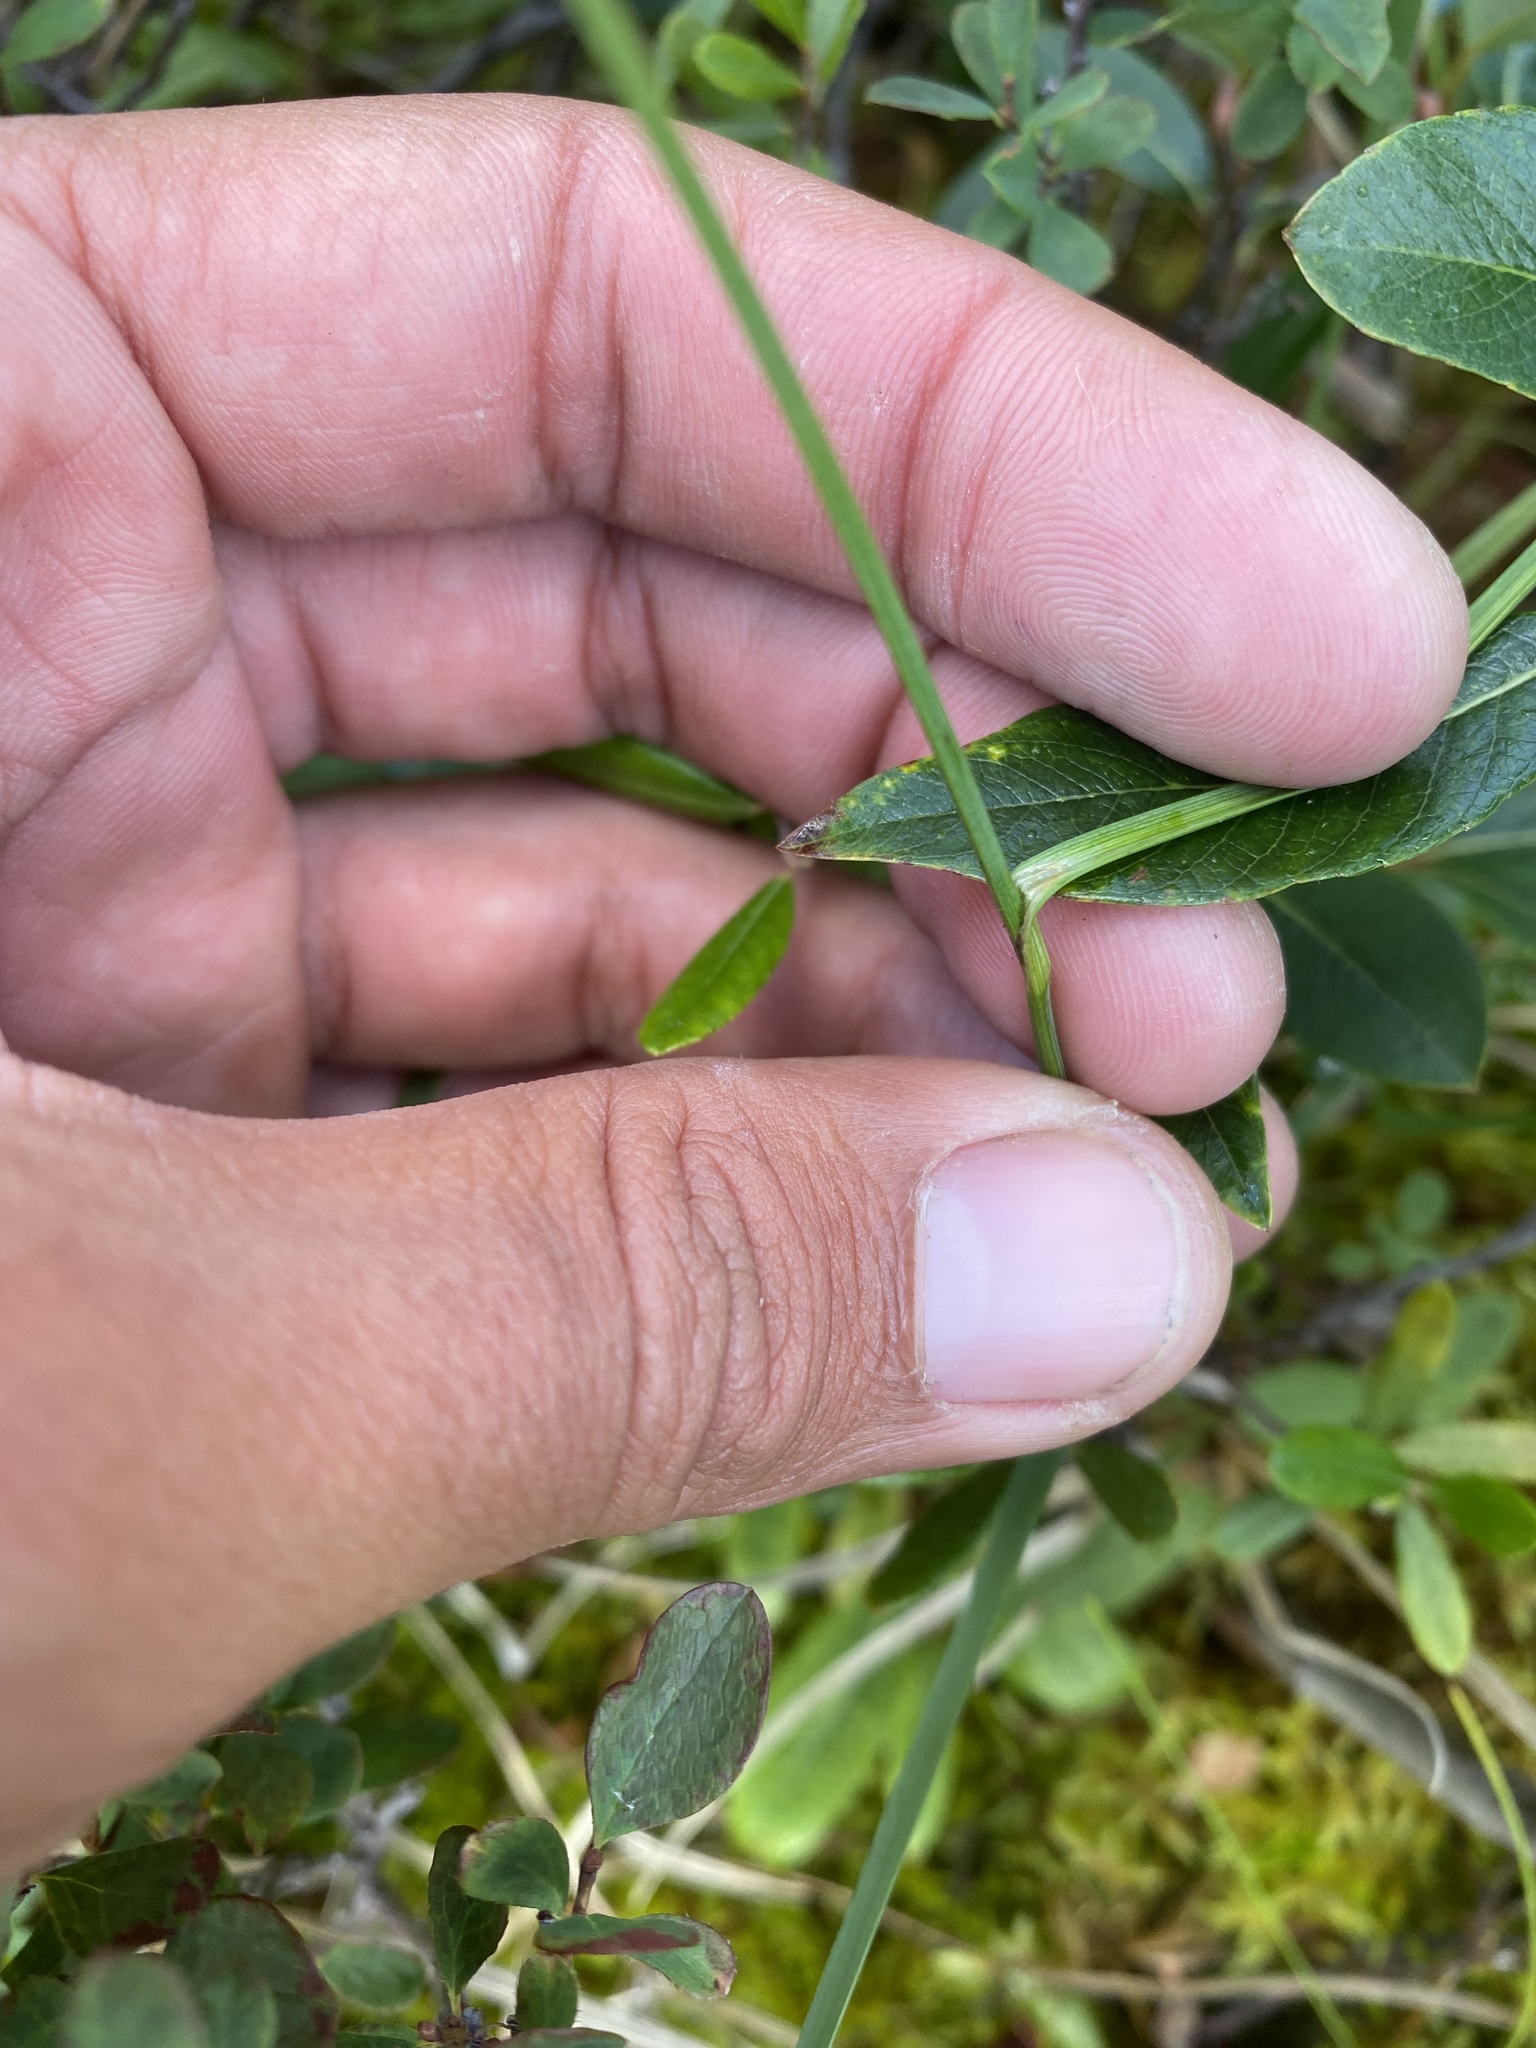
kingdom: Plantae
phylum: Tracheophyta
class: Liliopsida
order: Poales
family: Cyperaceae
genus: Carex
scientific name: Carex bigelowii
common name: Stiff sedge
